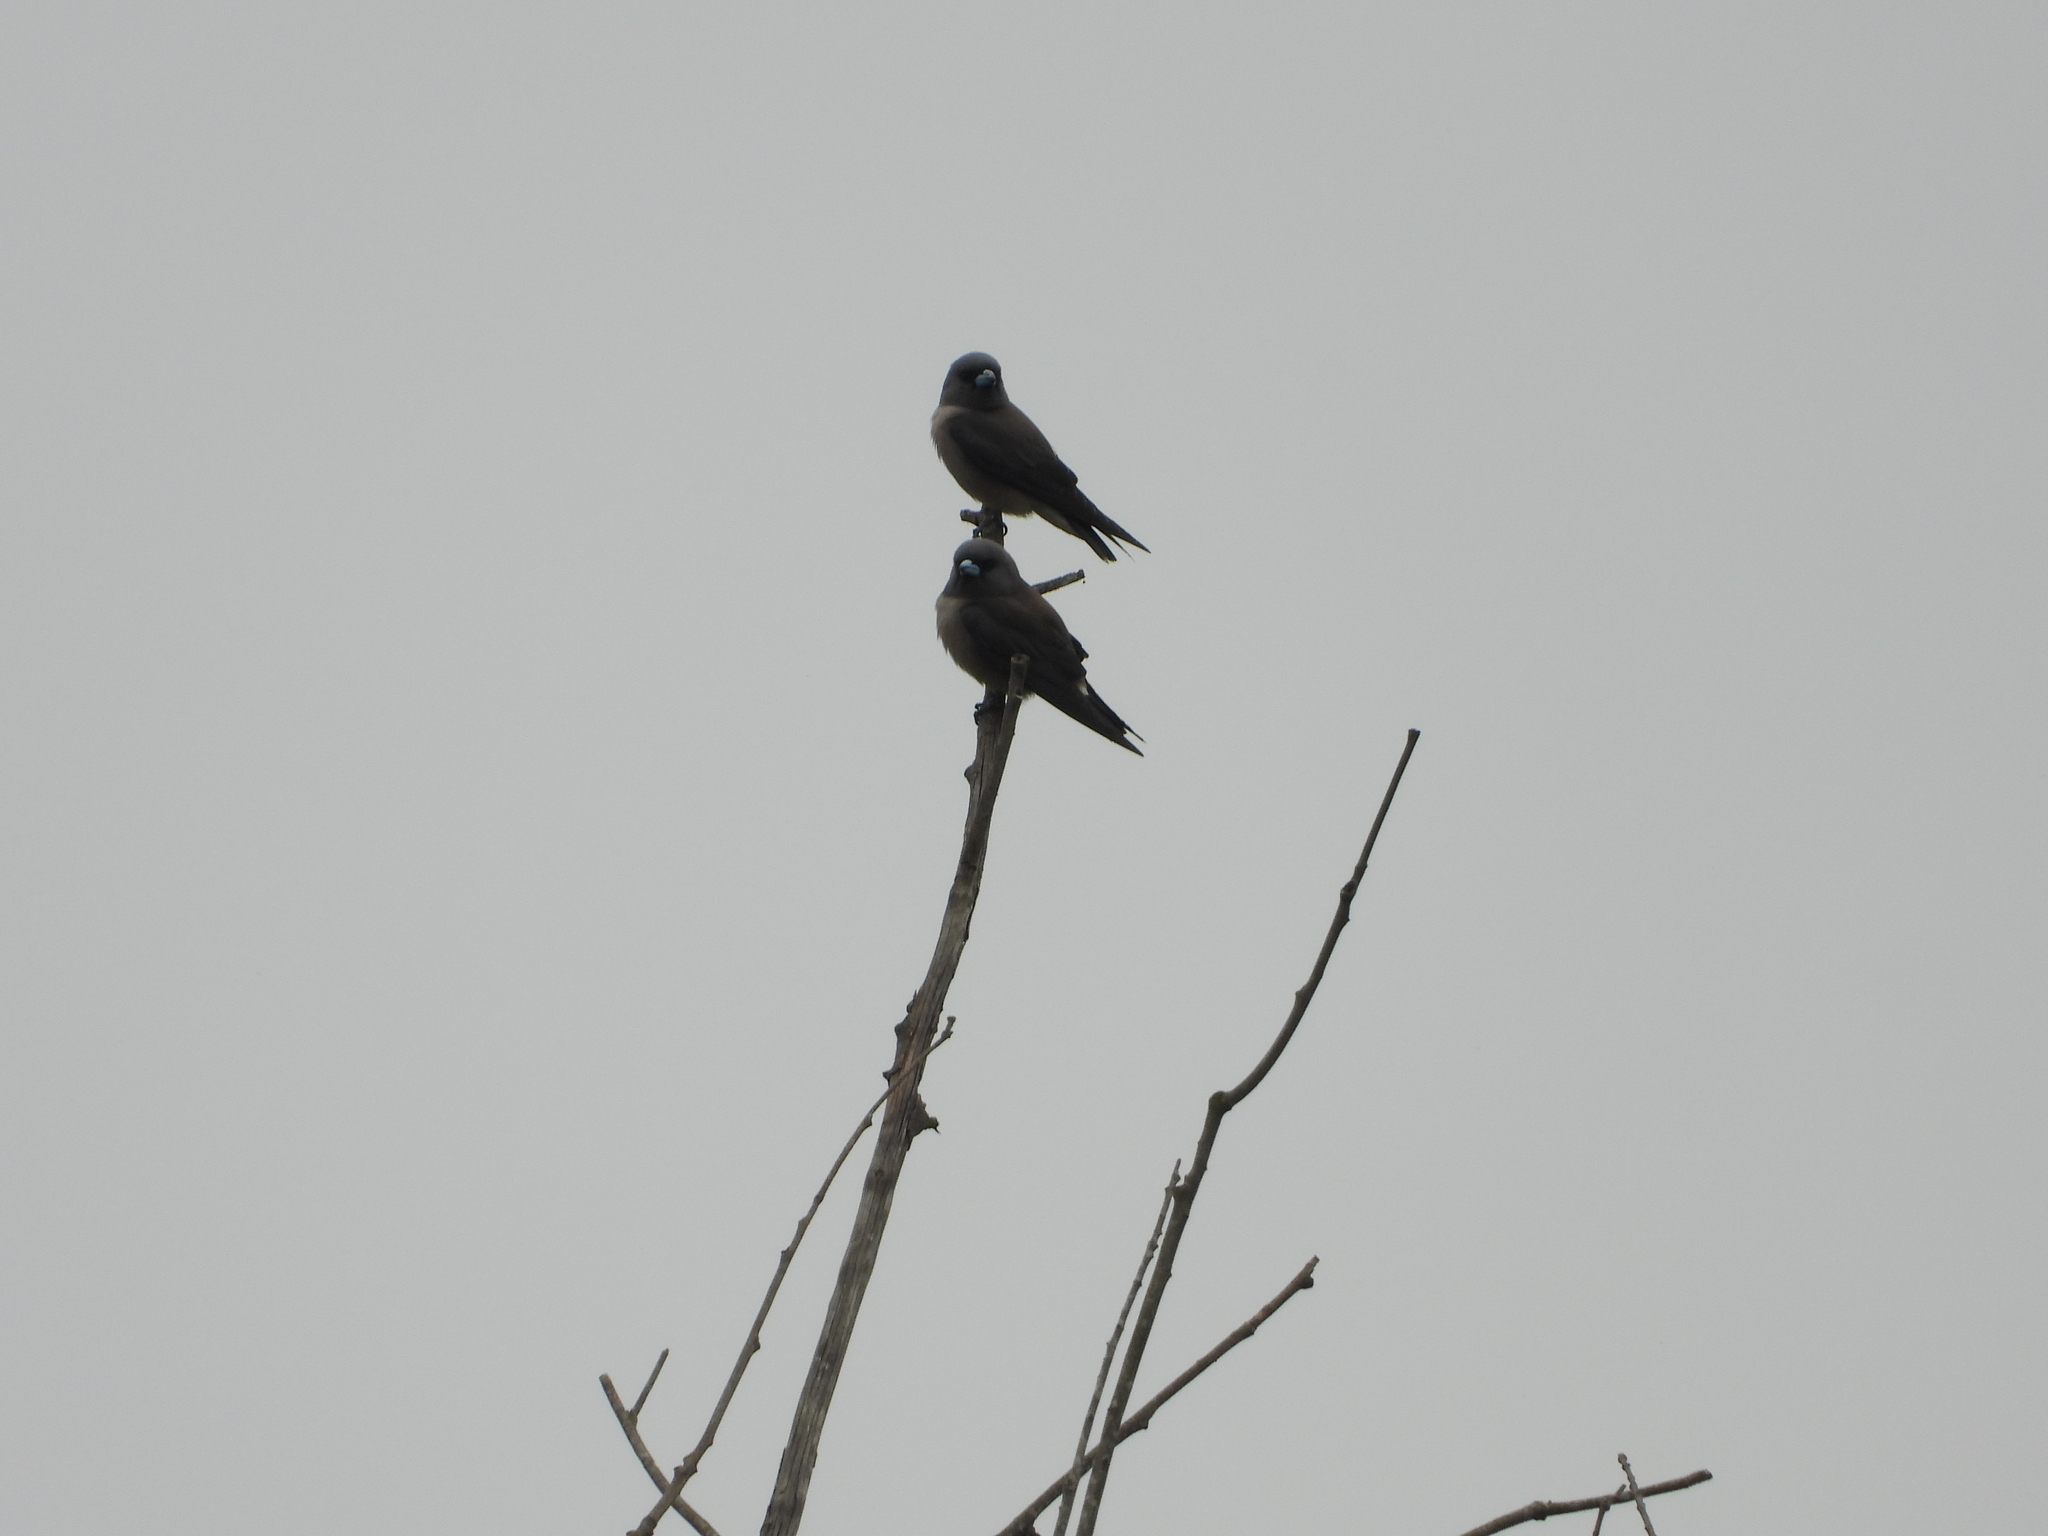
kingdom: Animalia
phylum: Chordata
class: Aves
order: Passeriformes
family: Artamidae
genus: Artamus
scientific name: Artamus fuscus
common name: Ashy woodswallow
